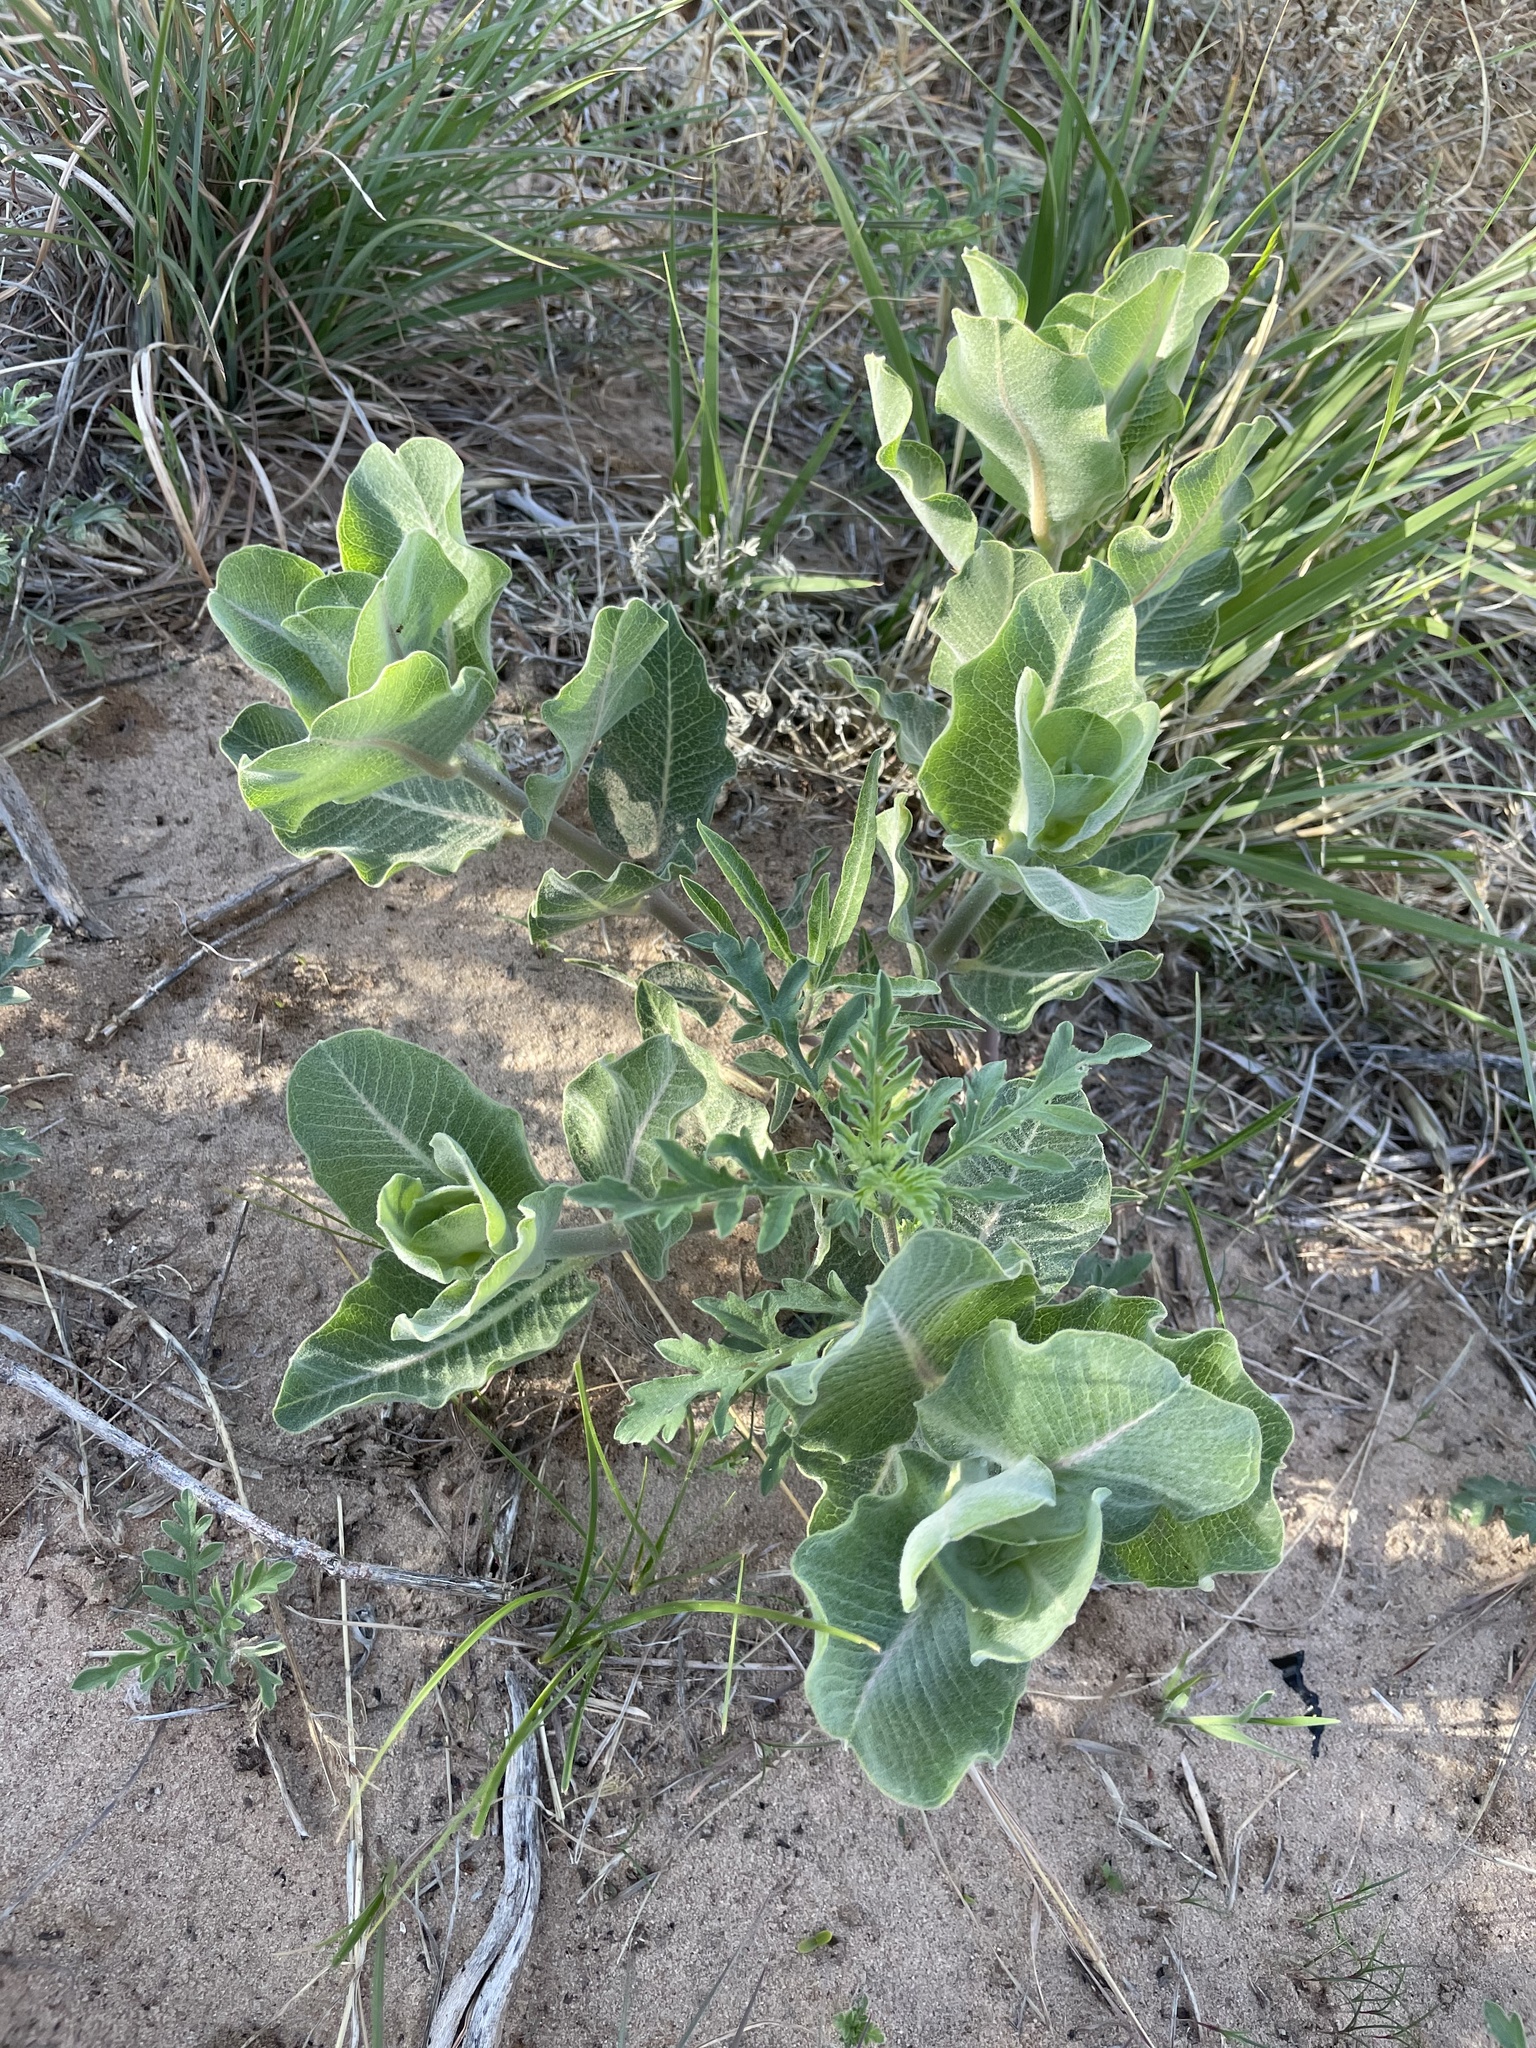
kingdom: Plantae
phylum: Tracheophyta
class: Magnoliopsida
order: Gentianales
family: Apocynaceae
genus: Asclepias
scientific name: Asclepias arenaria
